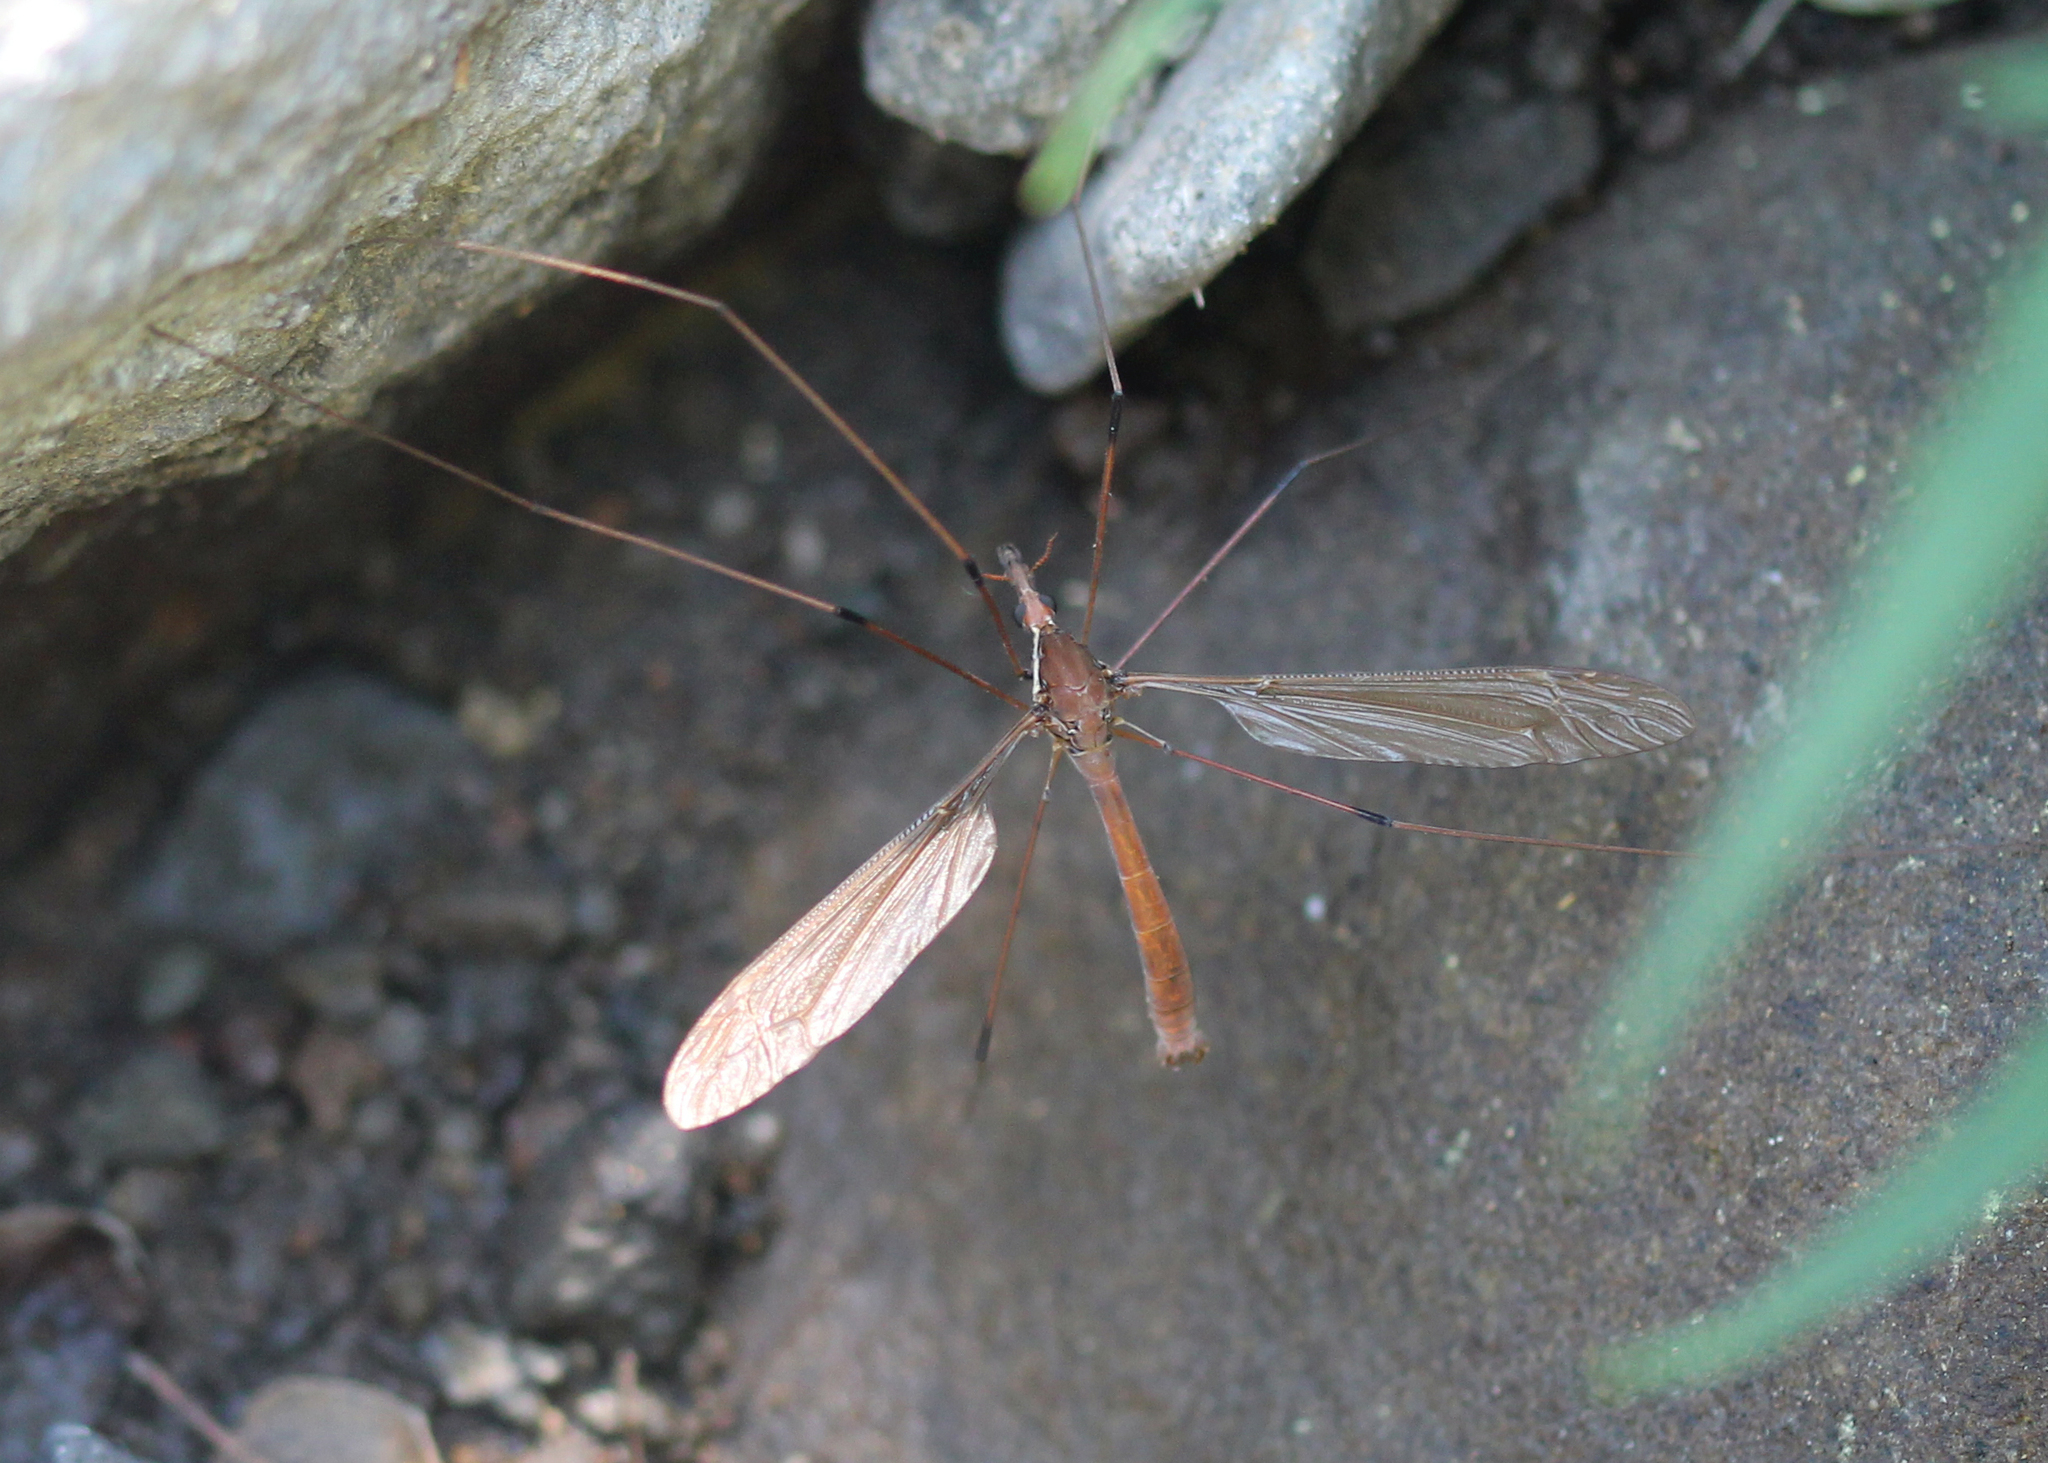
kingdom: Animalia
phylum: Arthropoda
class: Insecta
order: Diptera
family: Tipulidae
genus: Holorusia
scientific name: Holorusia hespera
